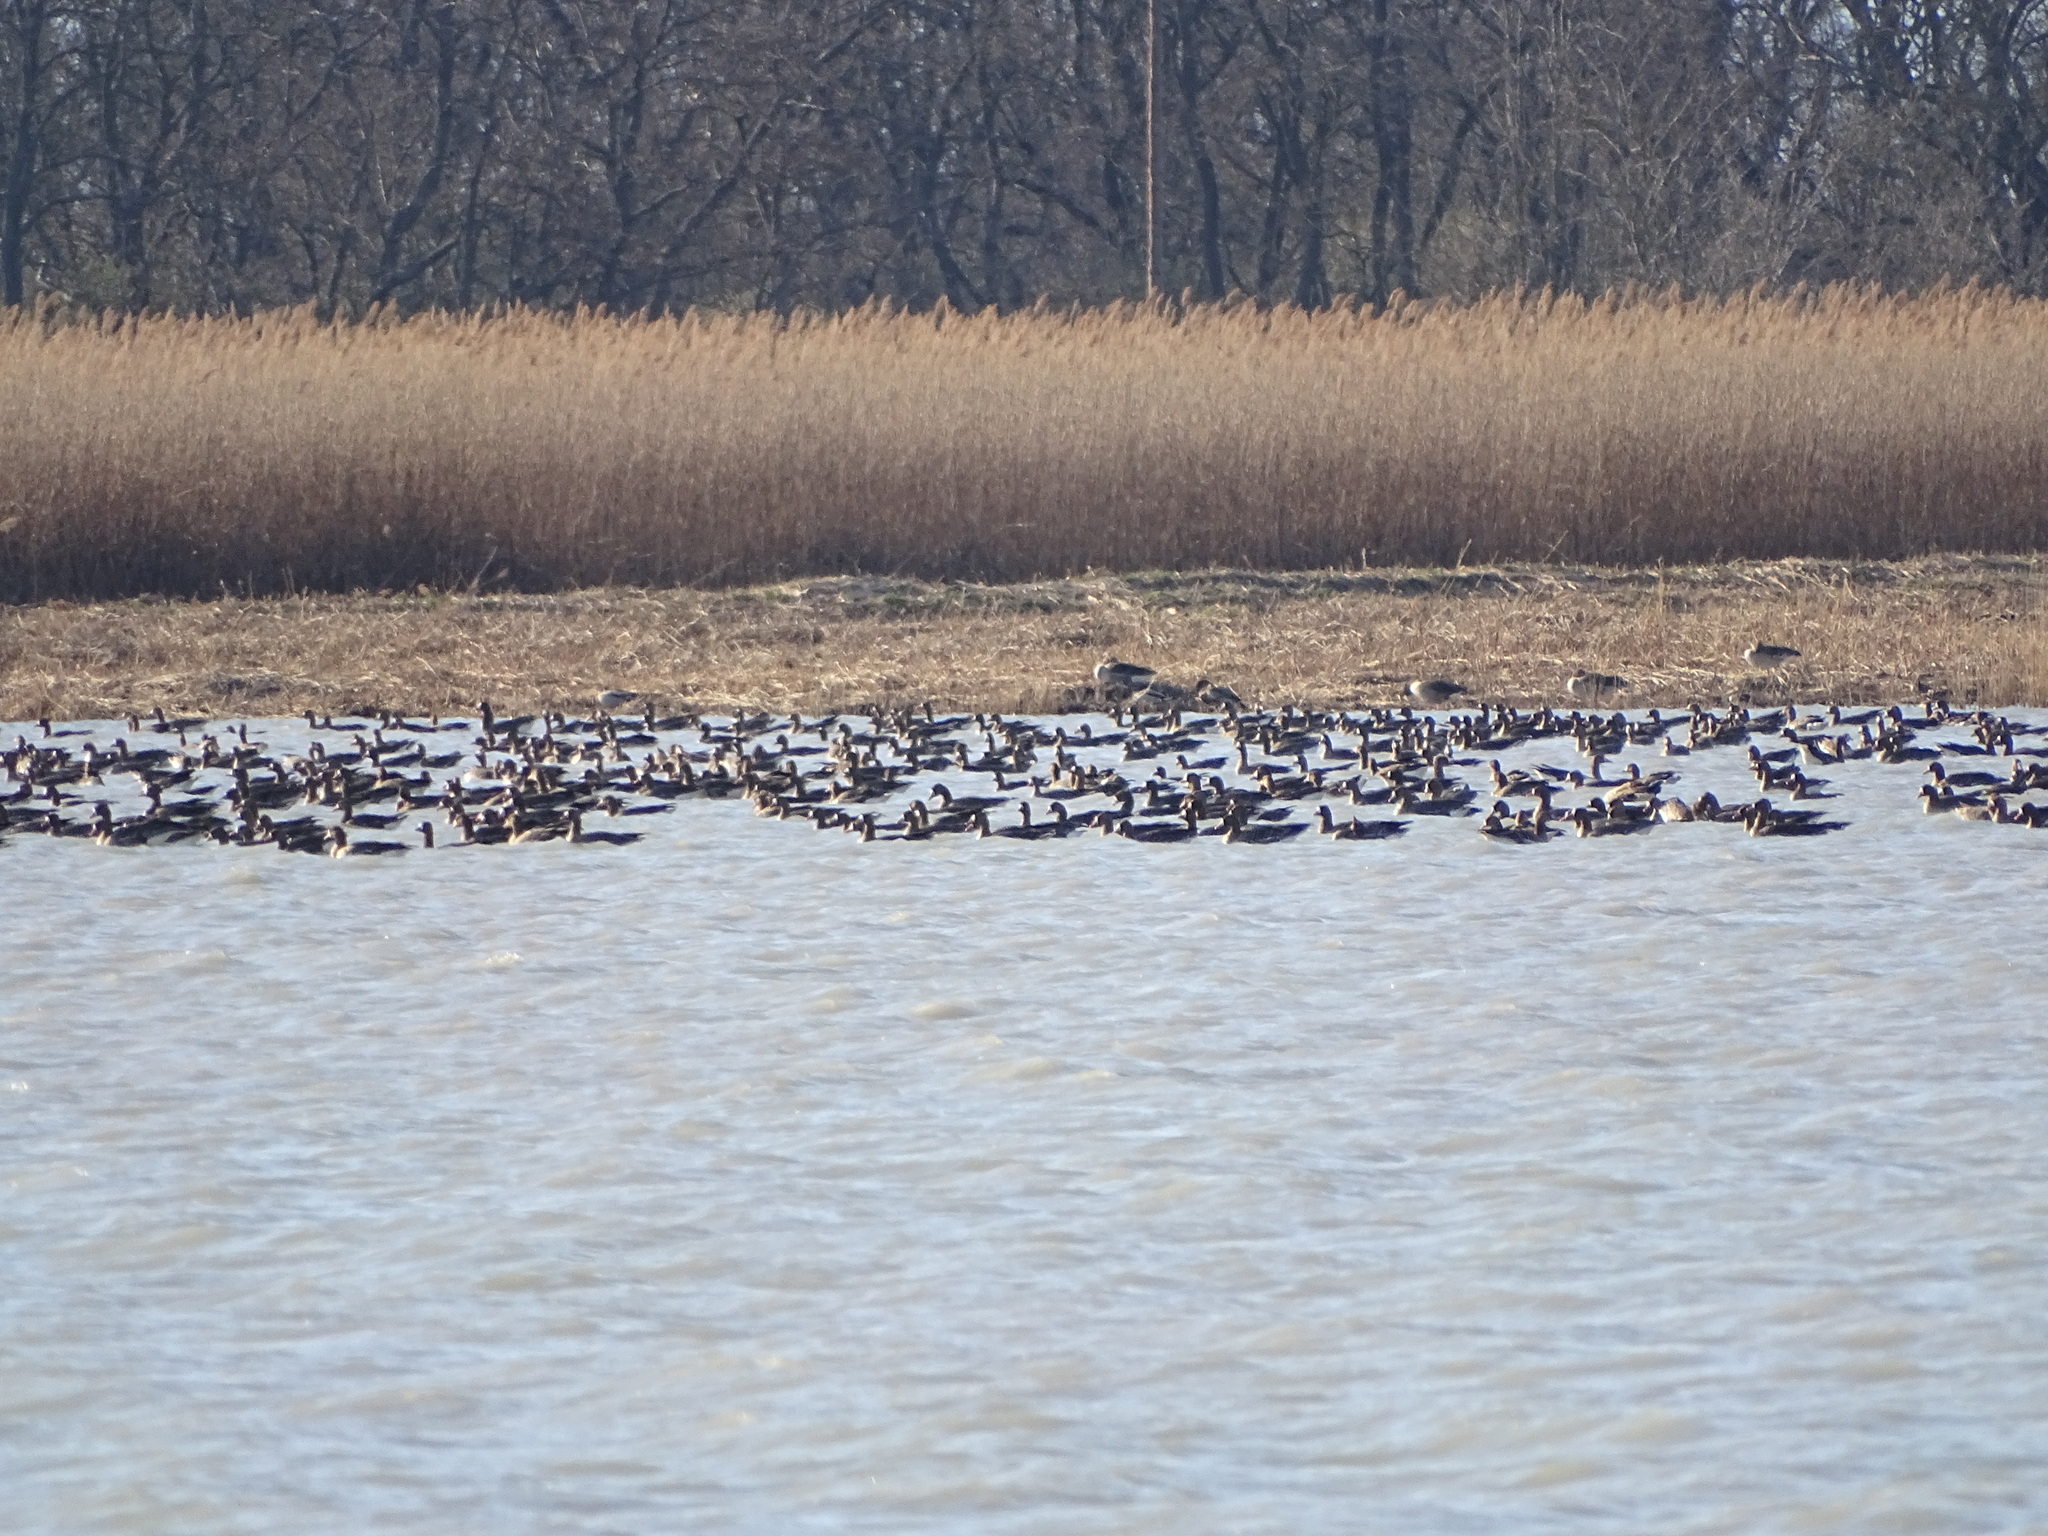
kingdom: Animalia
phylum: Chordata
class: Aves
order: Anseriformes
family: Anatidae
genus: Anser
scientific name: Anser albifrons
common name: Greater white-fronted goose
